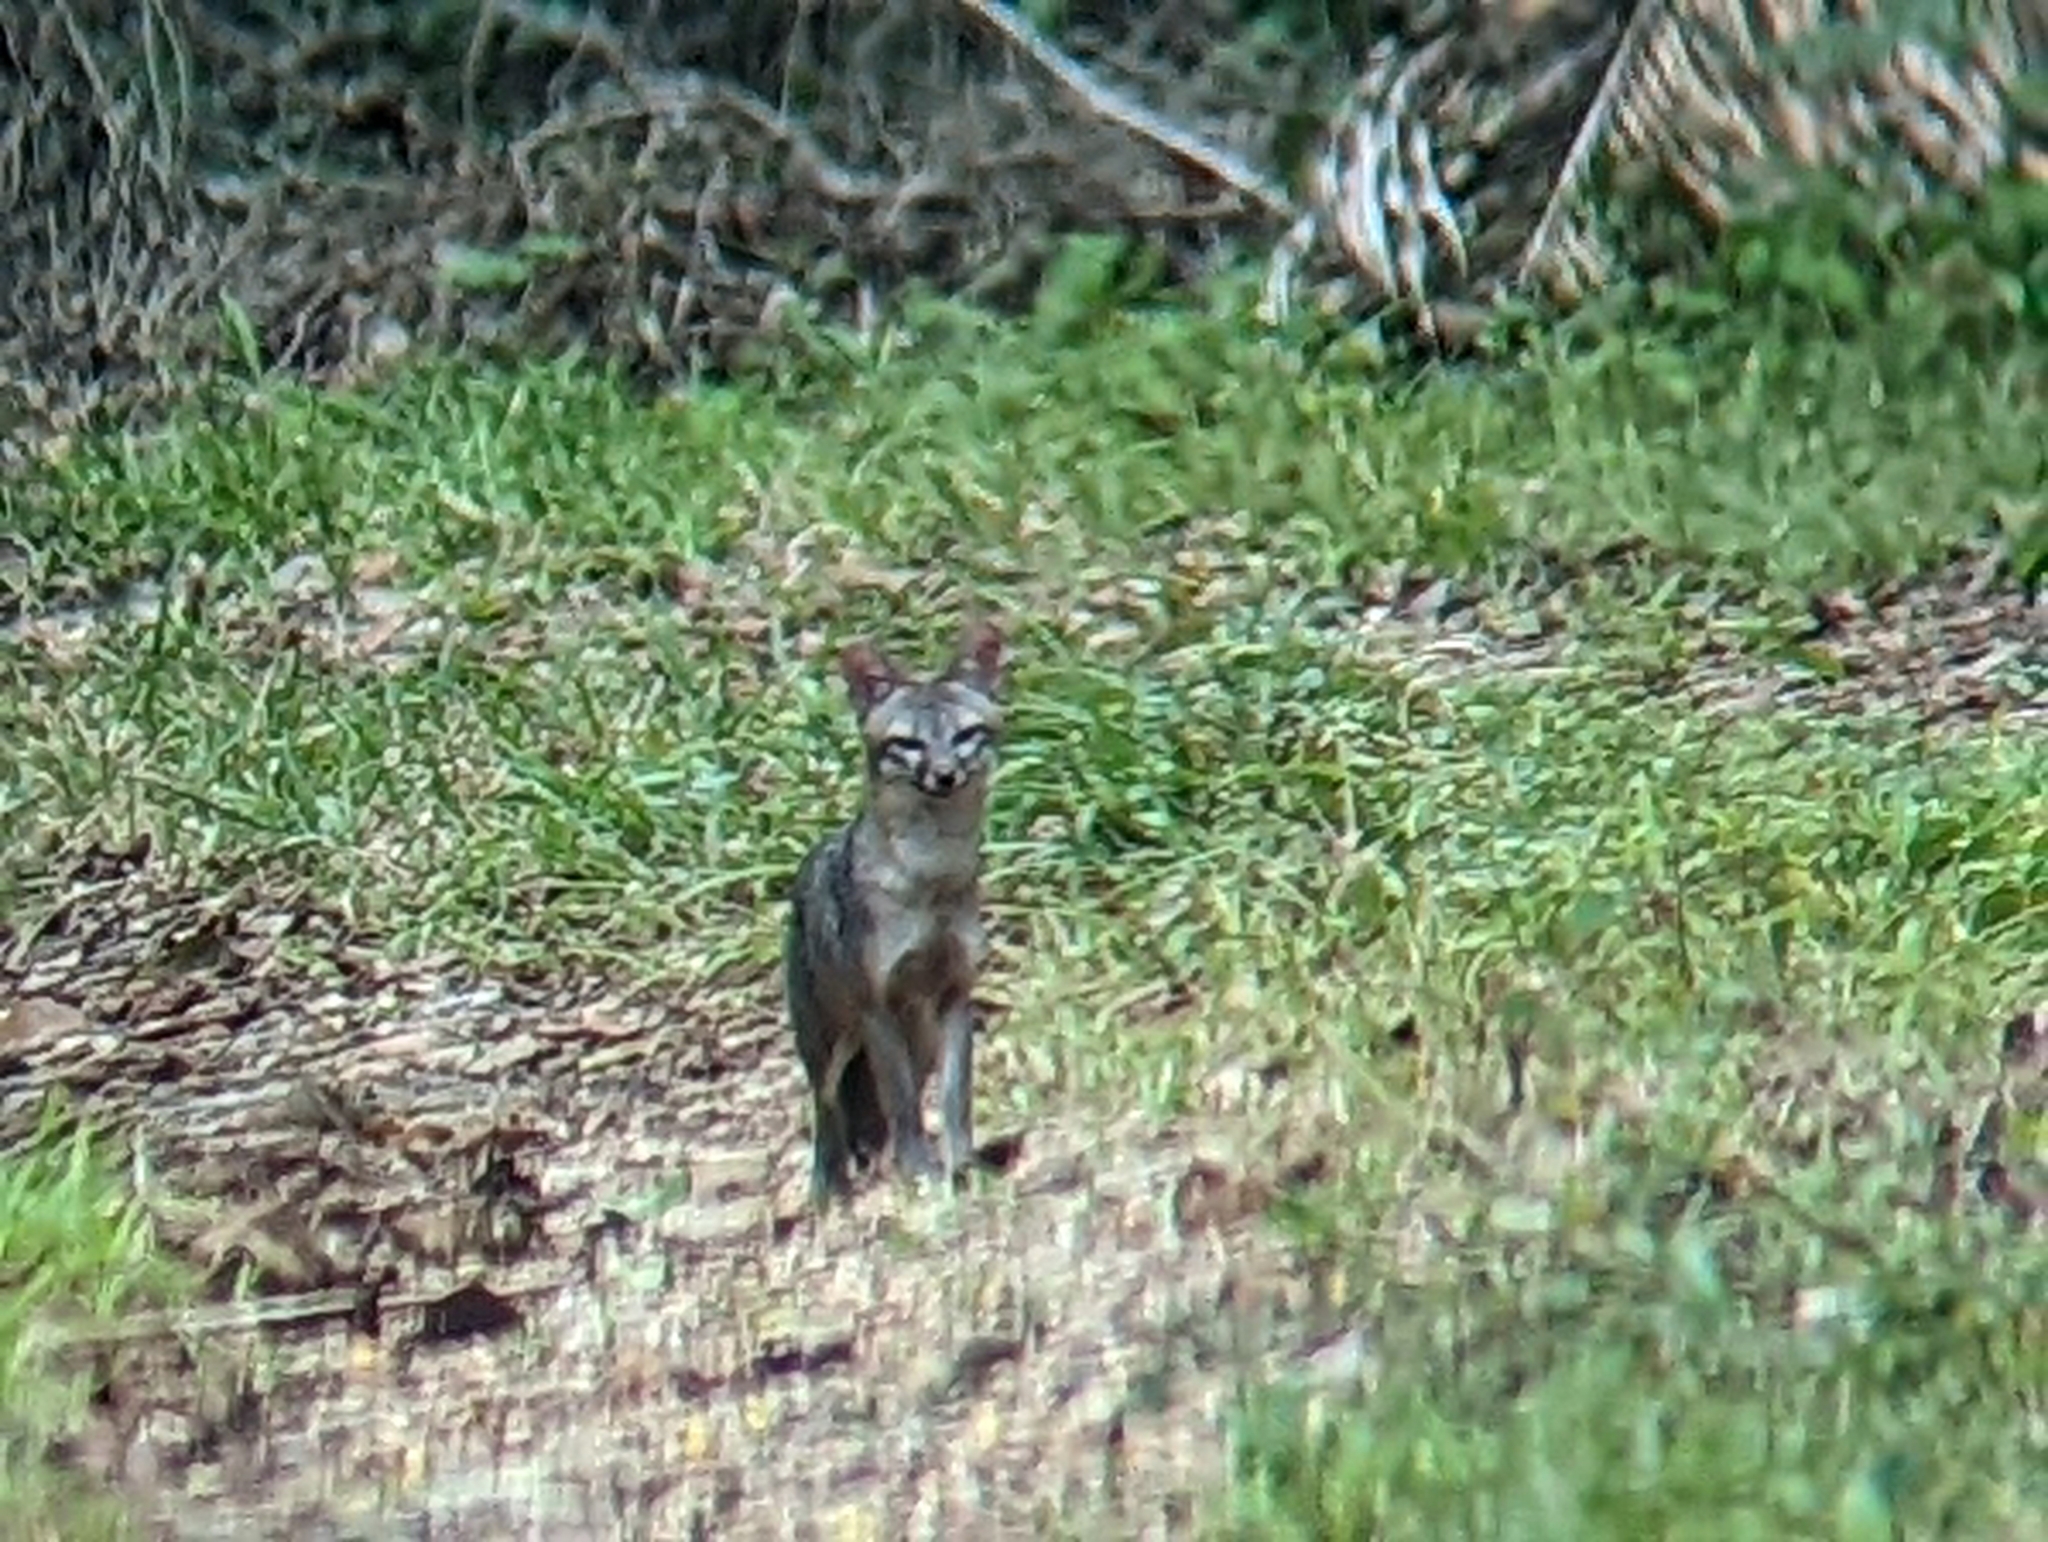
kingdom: Animalia
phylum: Chordata
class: Mammalia
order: Carnivora
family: Canidae
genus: Urocyon
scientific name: Urocyon cinereoargenteus
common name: Gray fox
